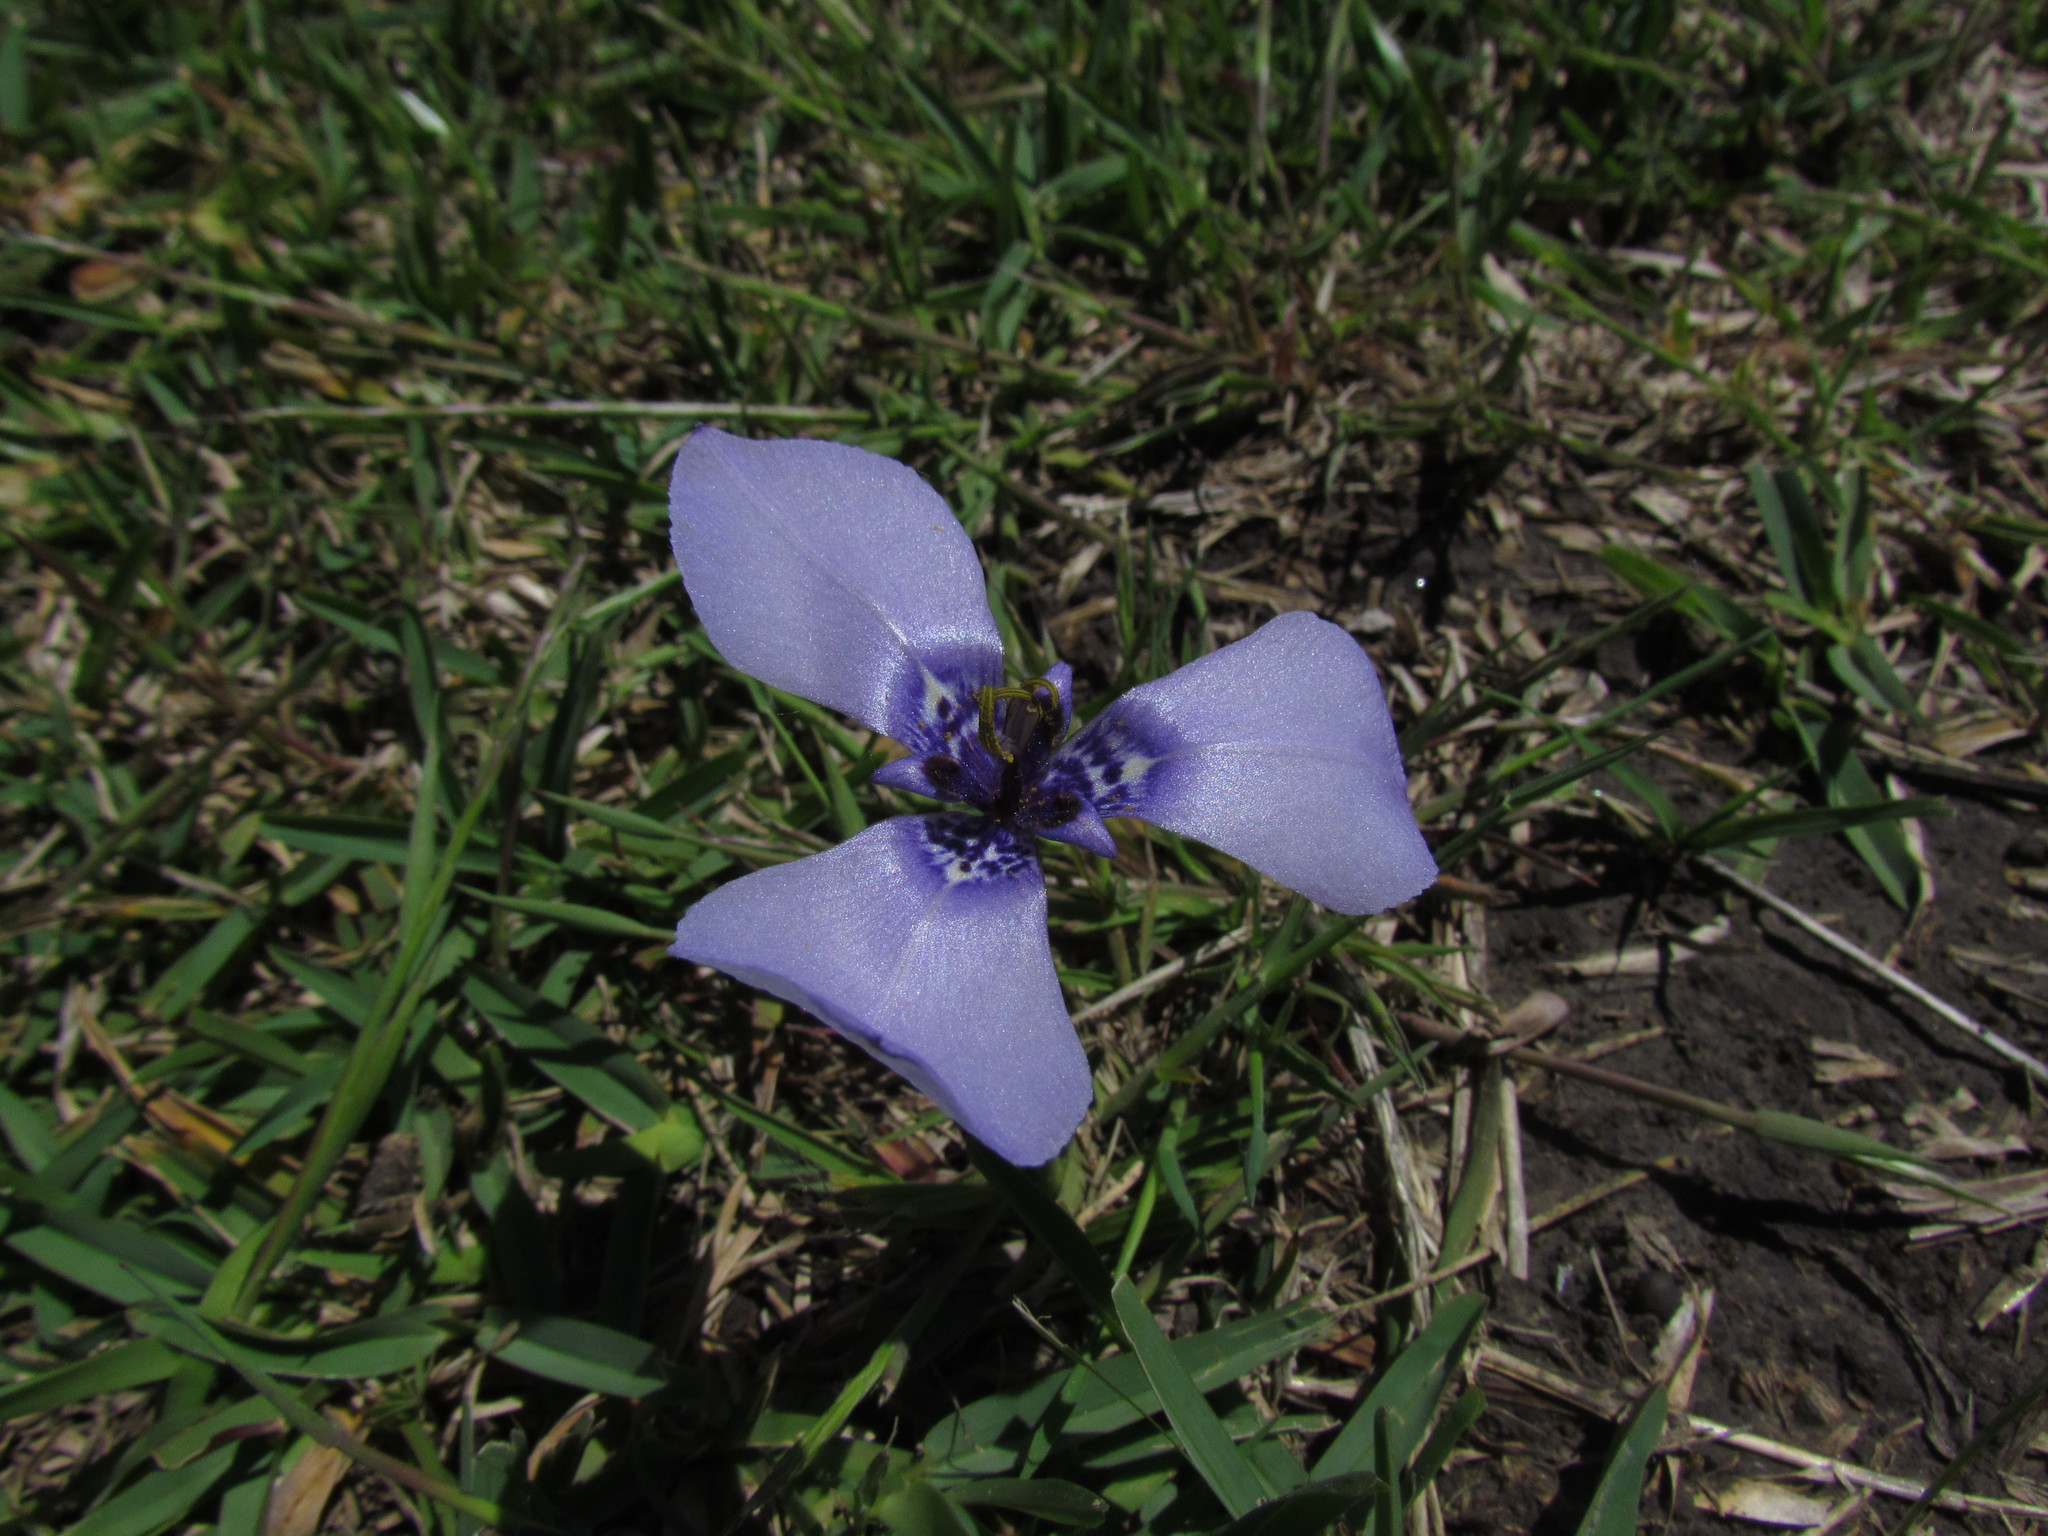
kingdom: Plantae
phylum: Tracheophyta
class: Liliopsida
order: Asparagales
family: Iridaceae
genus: Herbertia
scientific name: Herbertia lahue
